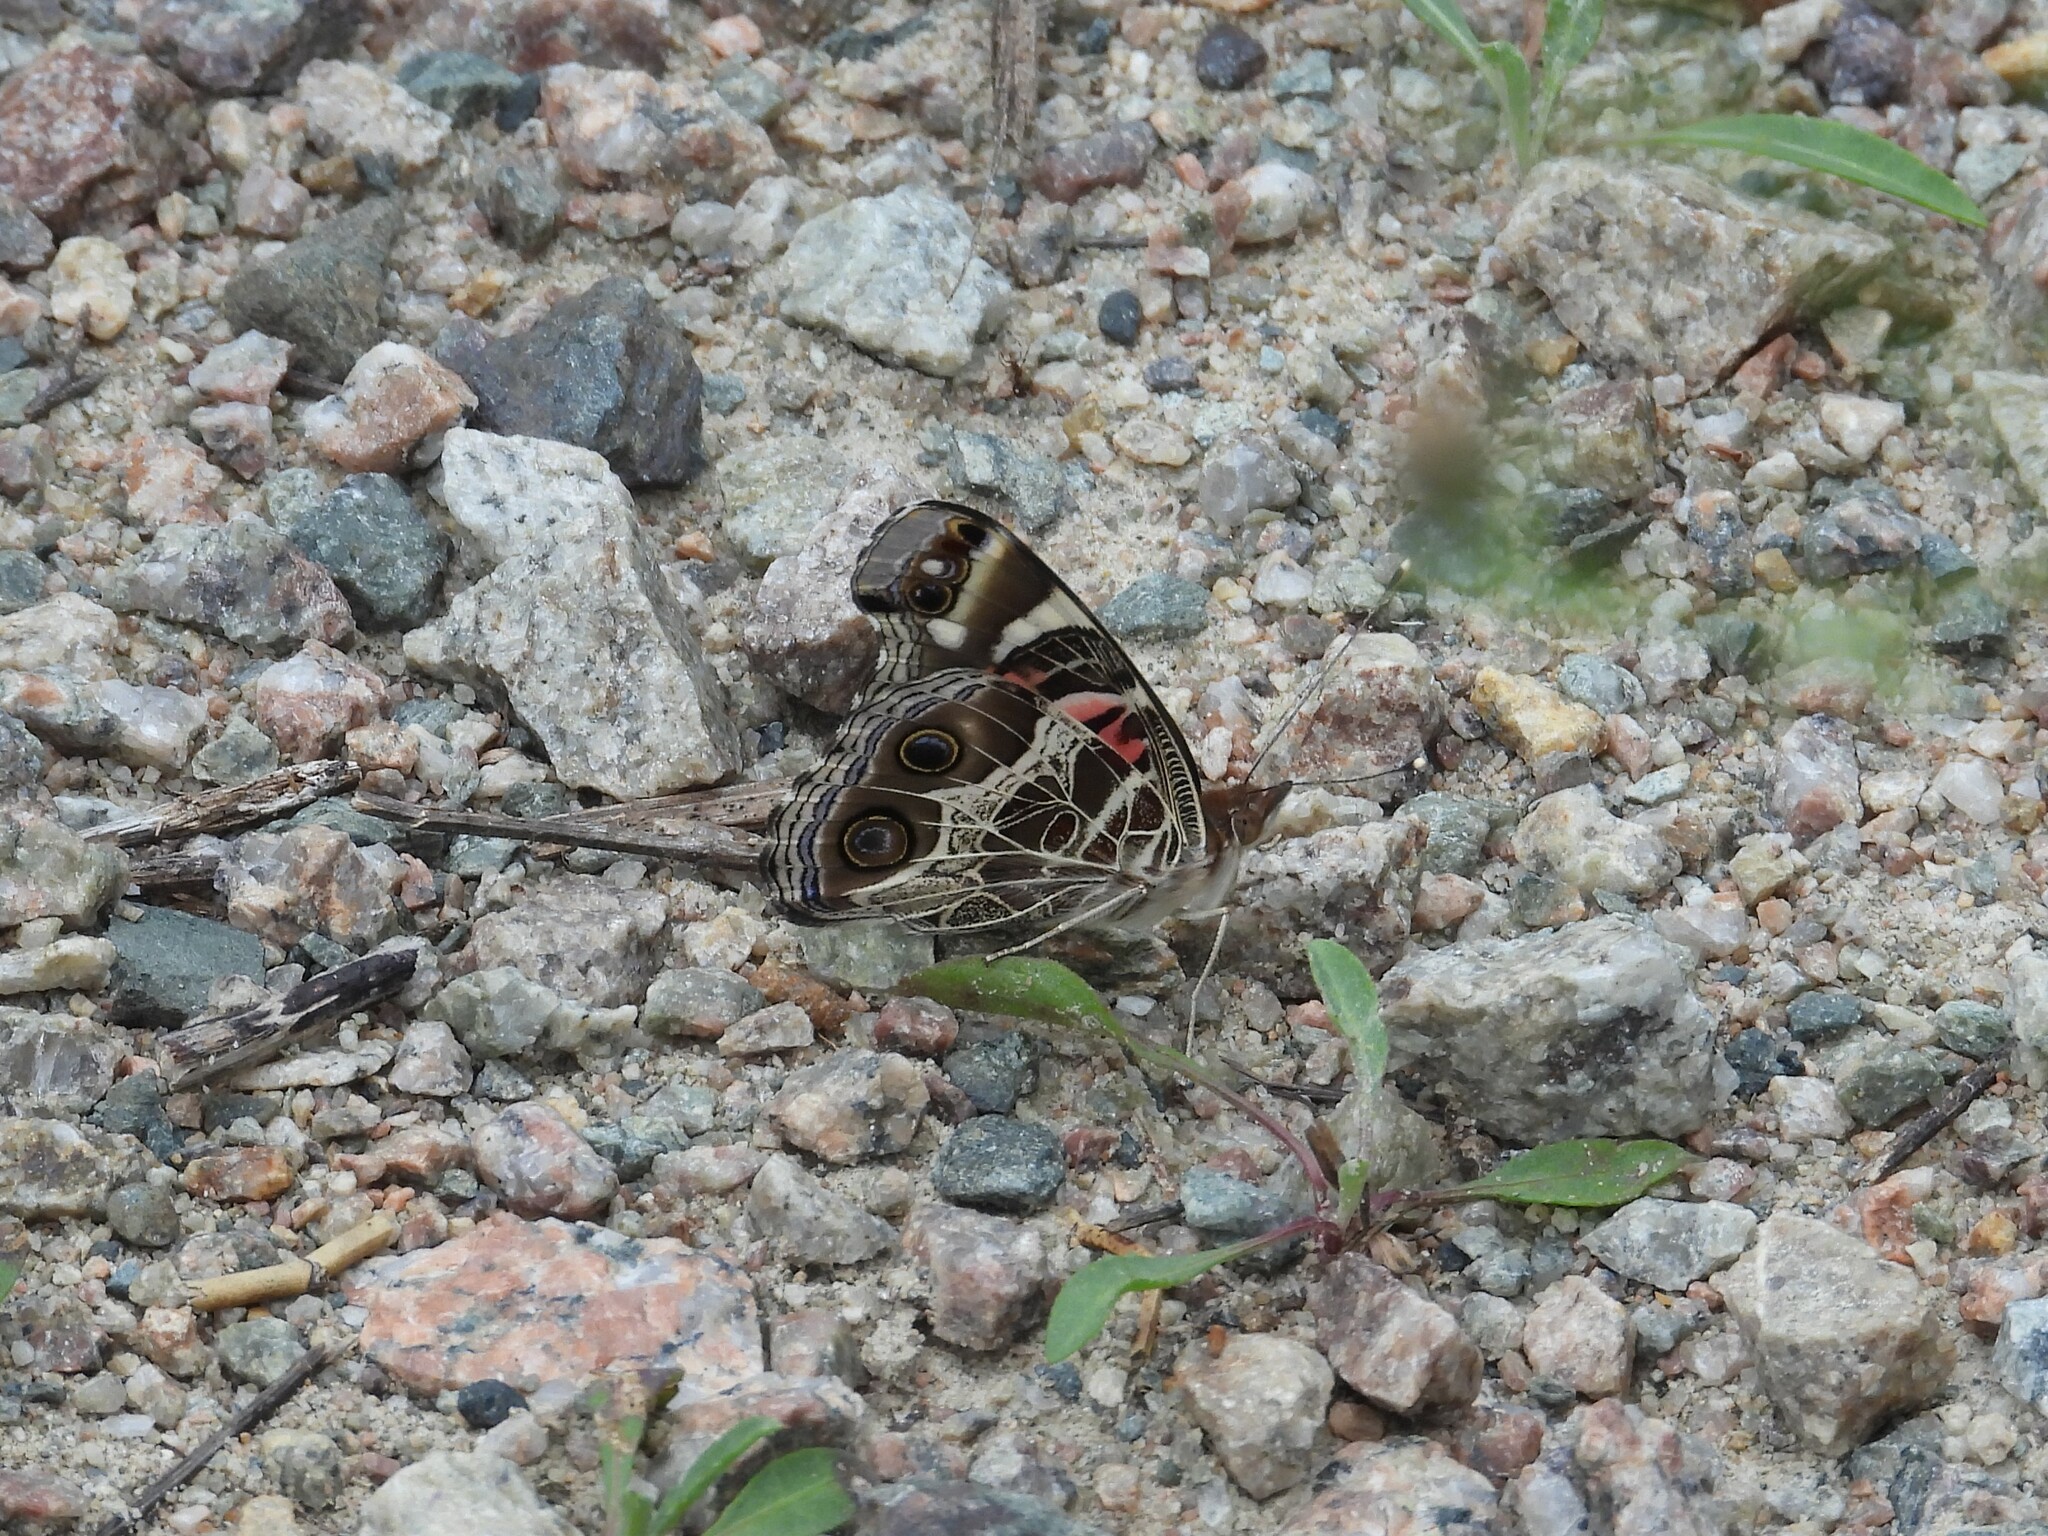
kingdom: Animalia
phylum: Arthropoda
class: Insecta
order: Lepidoptera
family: Nymphalidae
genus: Vanessa
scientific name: Vanessa virginiensis
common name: American lady
